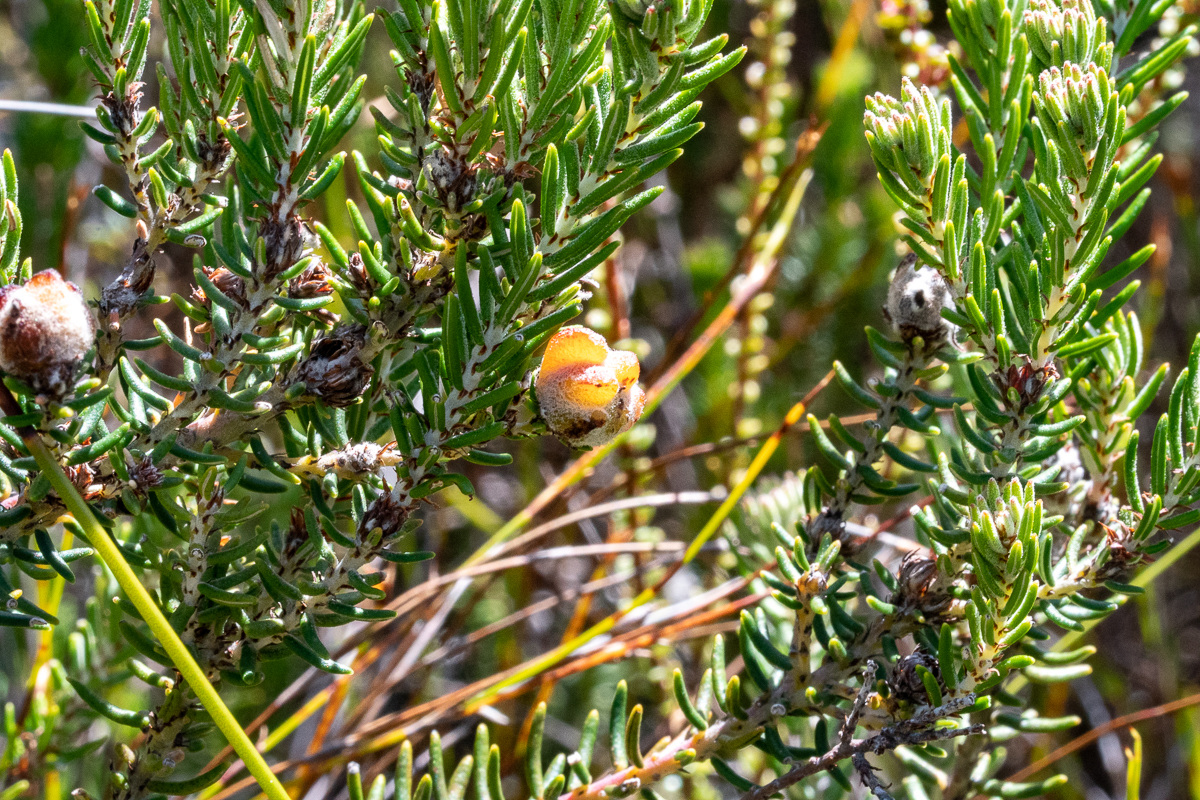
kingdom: Plantae
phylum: Tracheophyta
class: Magnoliopsida
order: Rosales
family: Rhamnaceae
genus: Trichocephalus
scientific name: Trichocephalus stipularis
